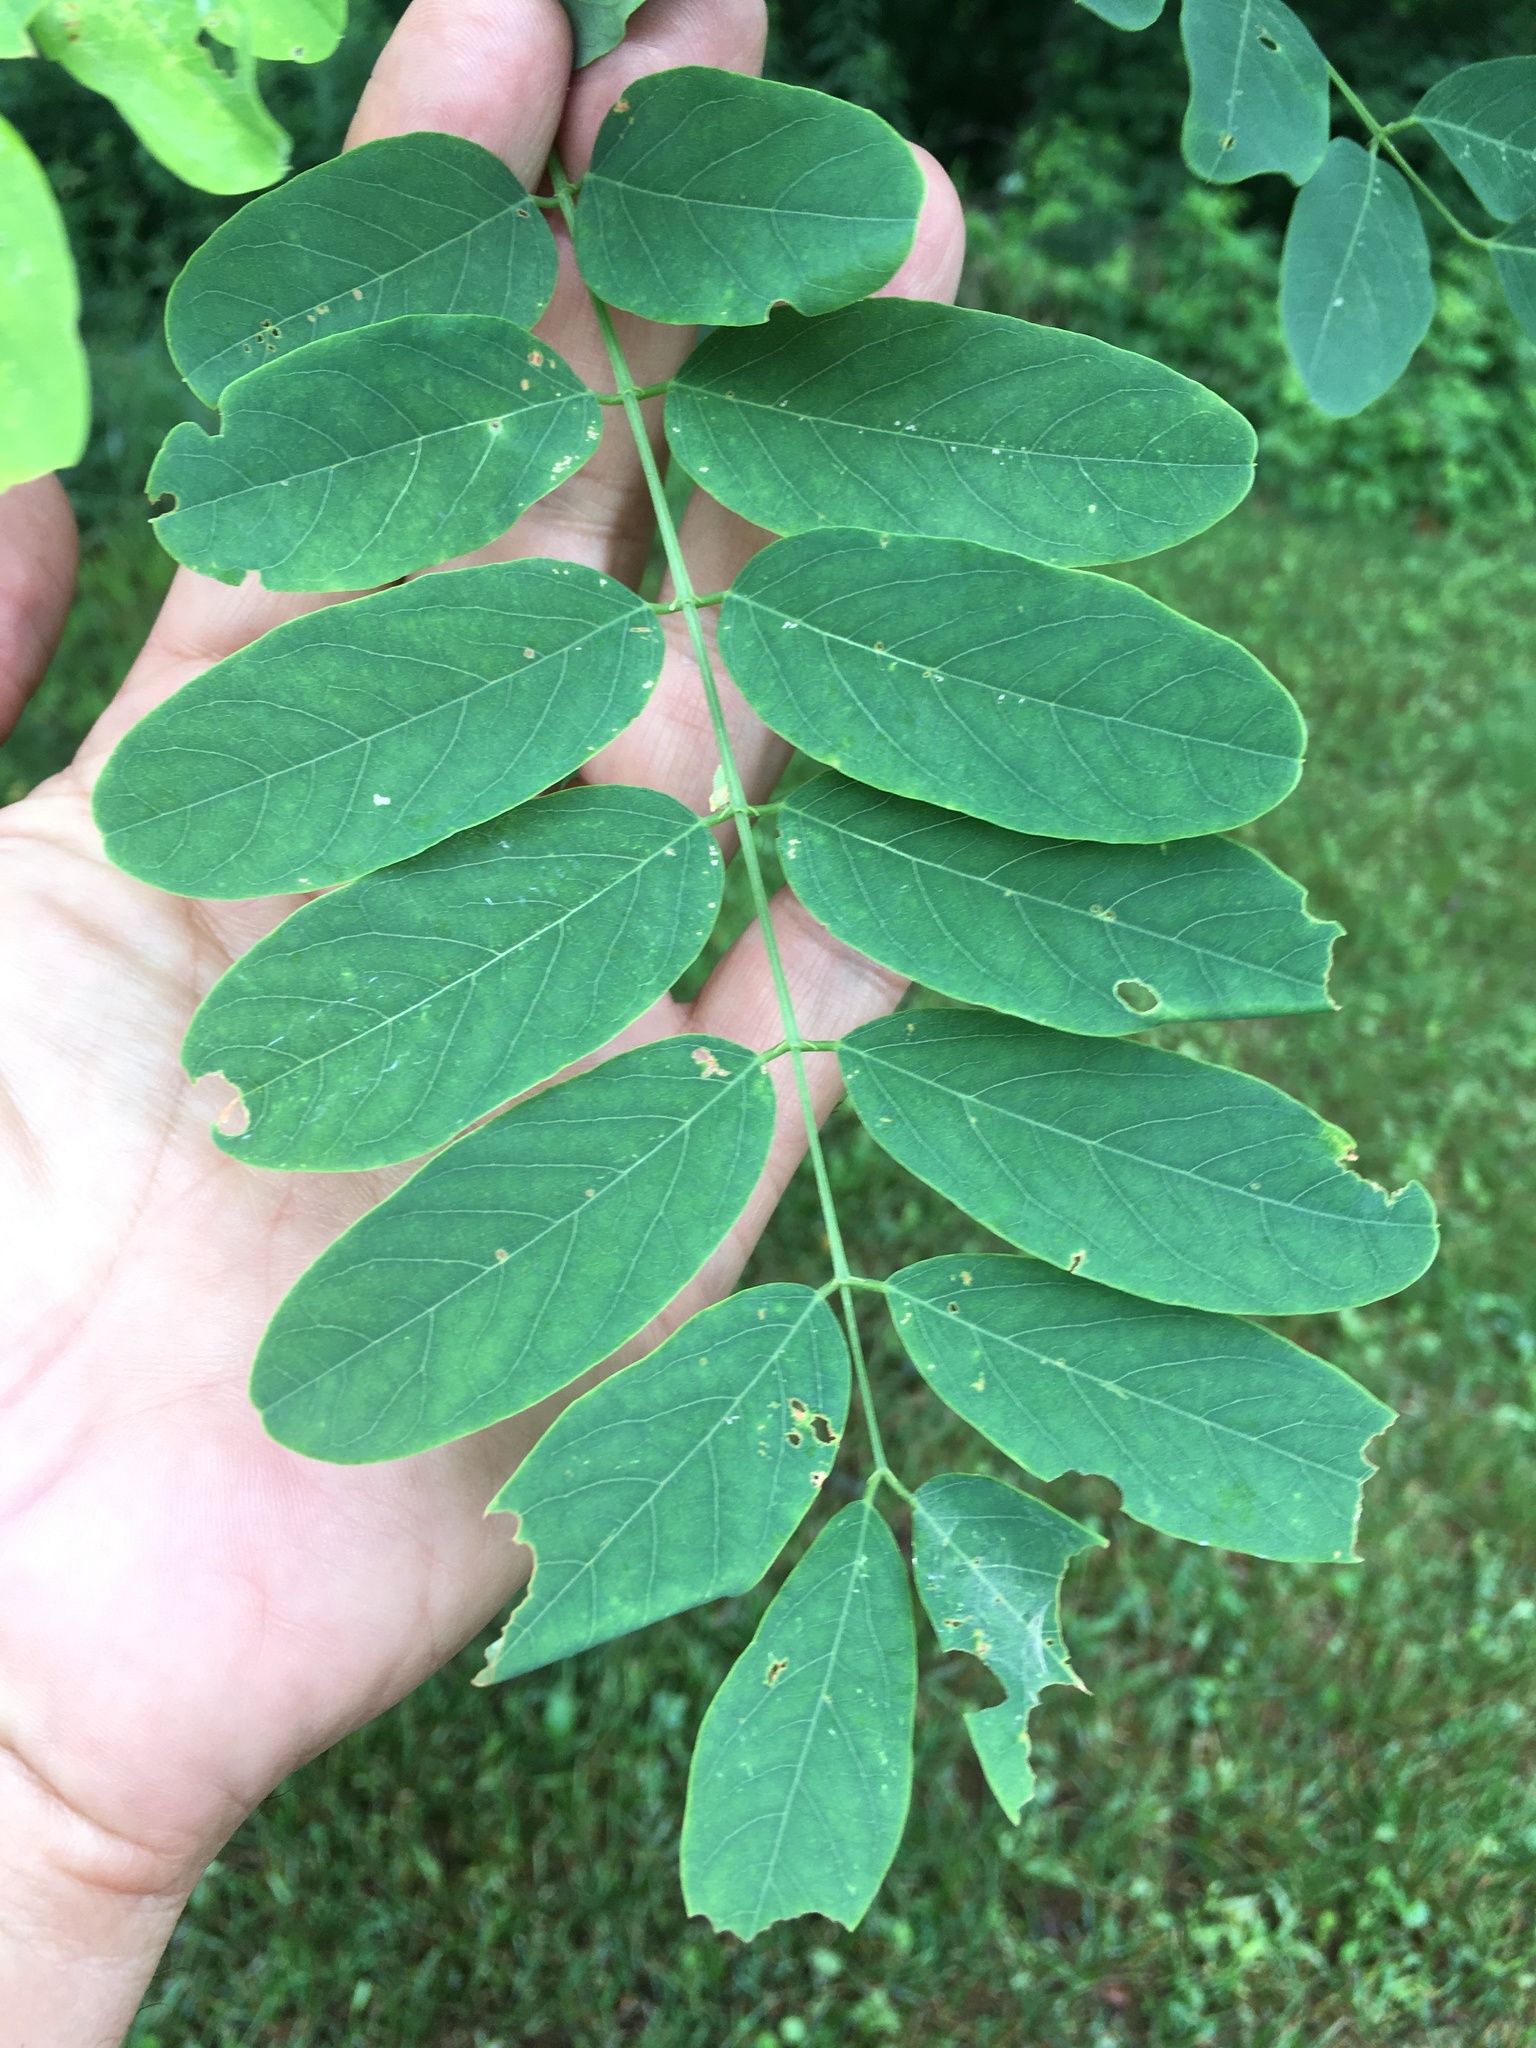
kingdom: Plantae
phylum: Tracheophyta
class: Magnoliopsida
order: Fabales
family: Fabaceae
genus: Robinia
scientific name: Robinia pseudoacacia
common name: Black locust
